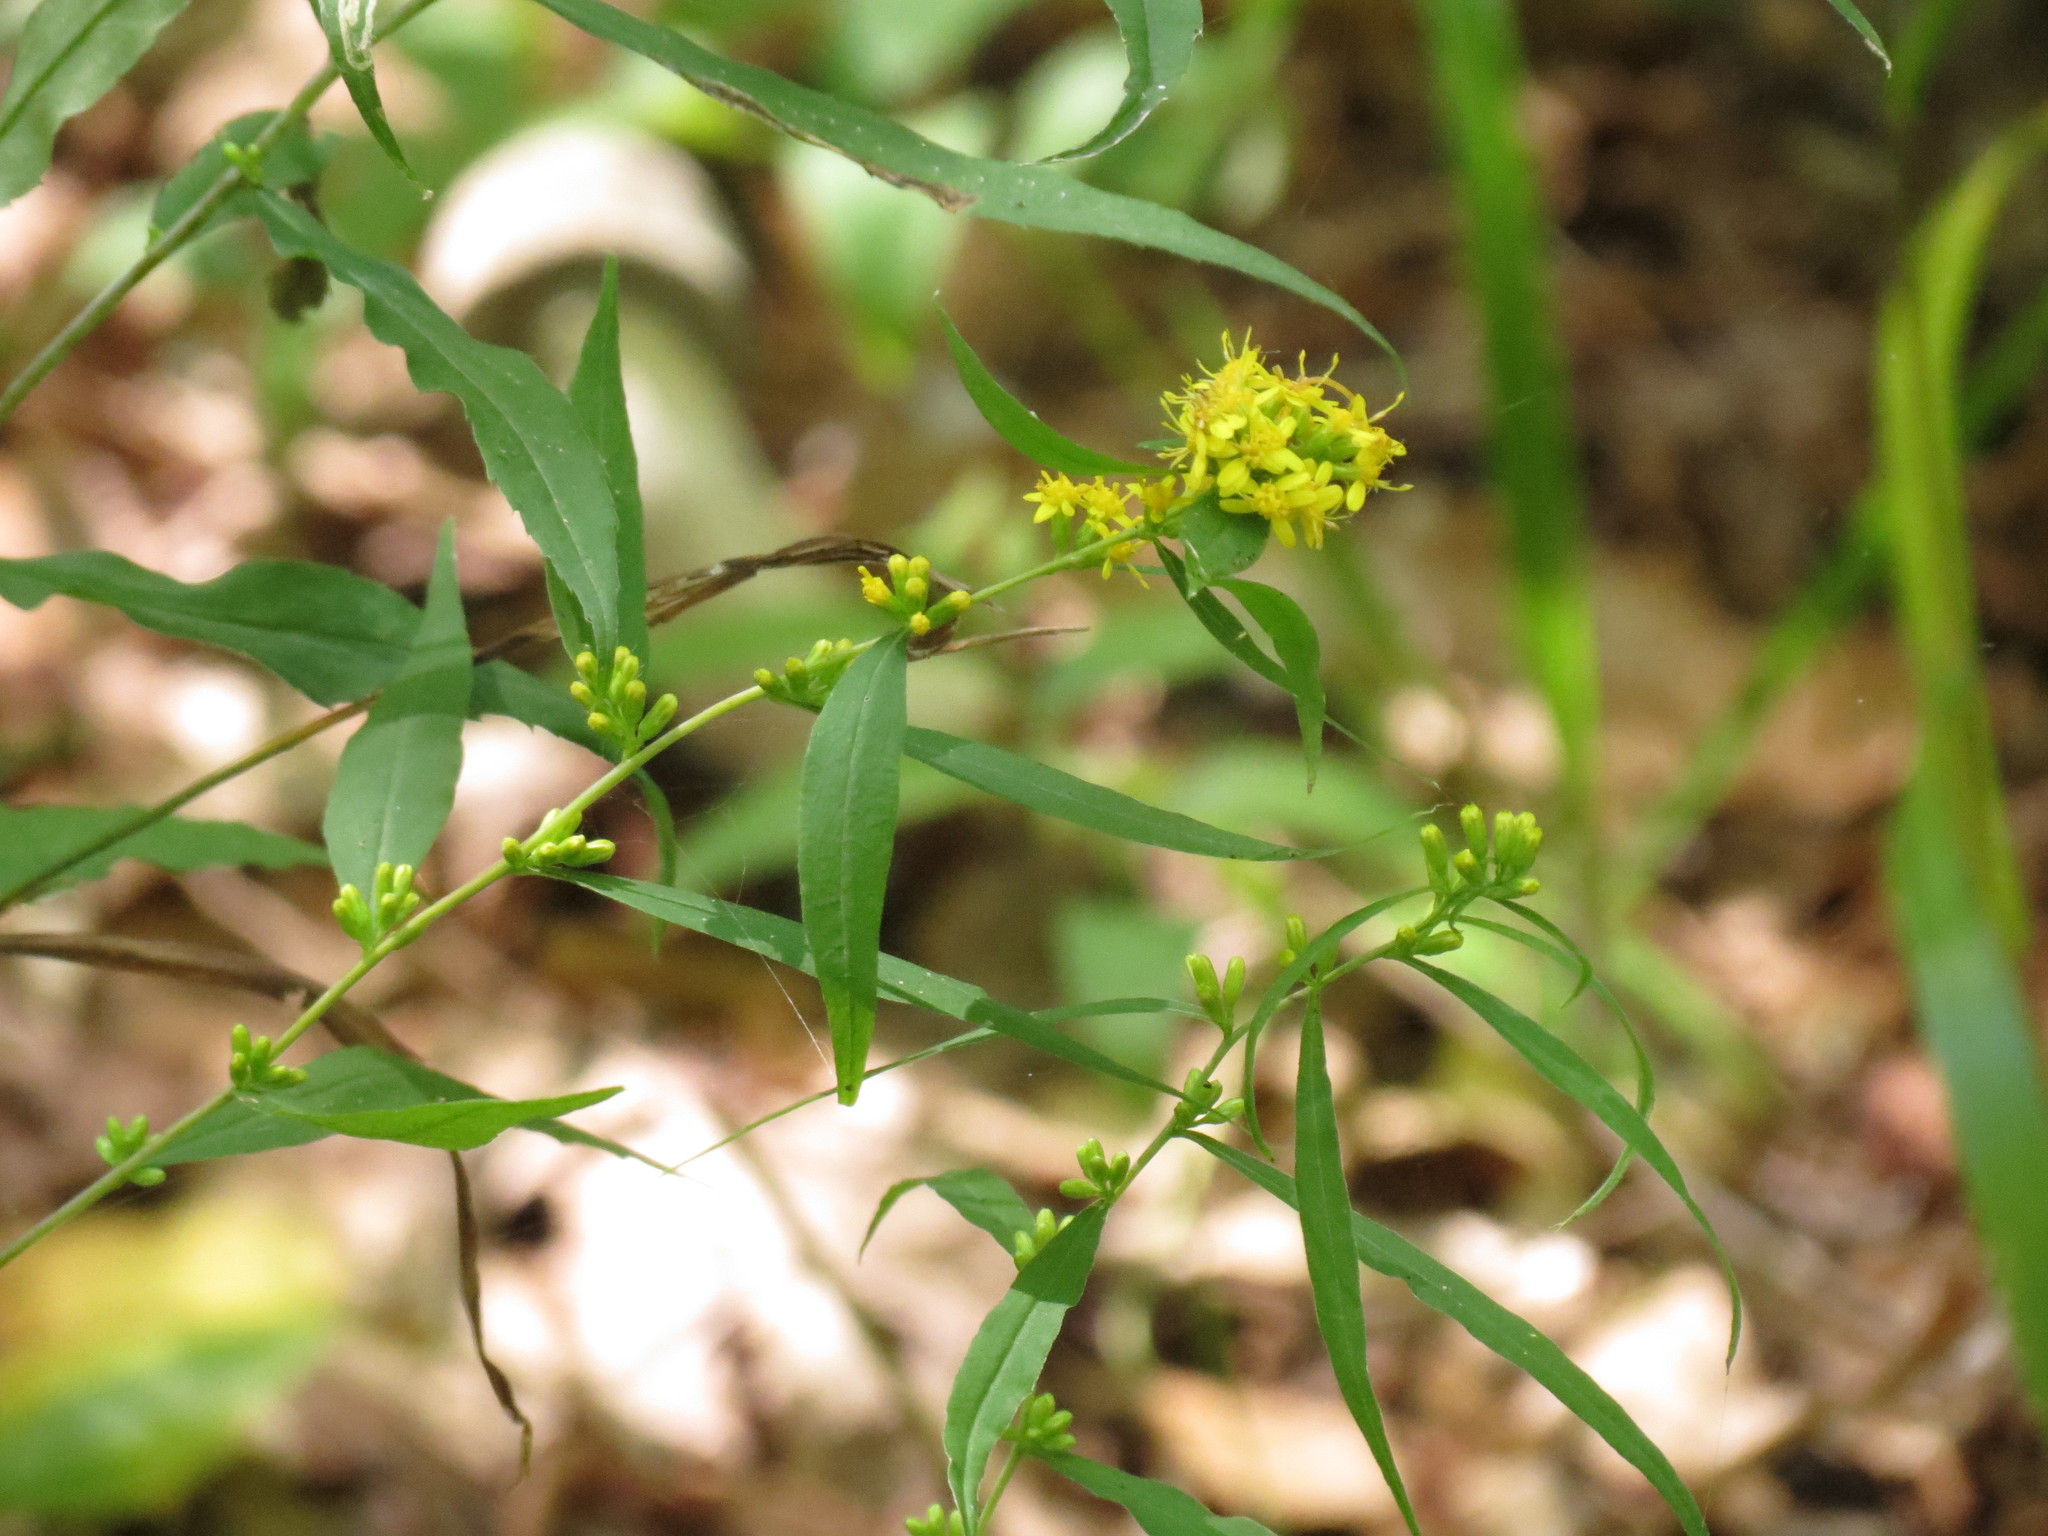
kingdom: Plantae
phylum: Tracheophyta
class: Magnoliopsida
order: Asterales
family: Asteraceae
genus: Solidago
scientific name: Solidago caesia
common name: Woodland goldenrod
